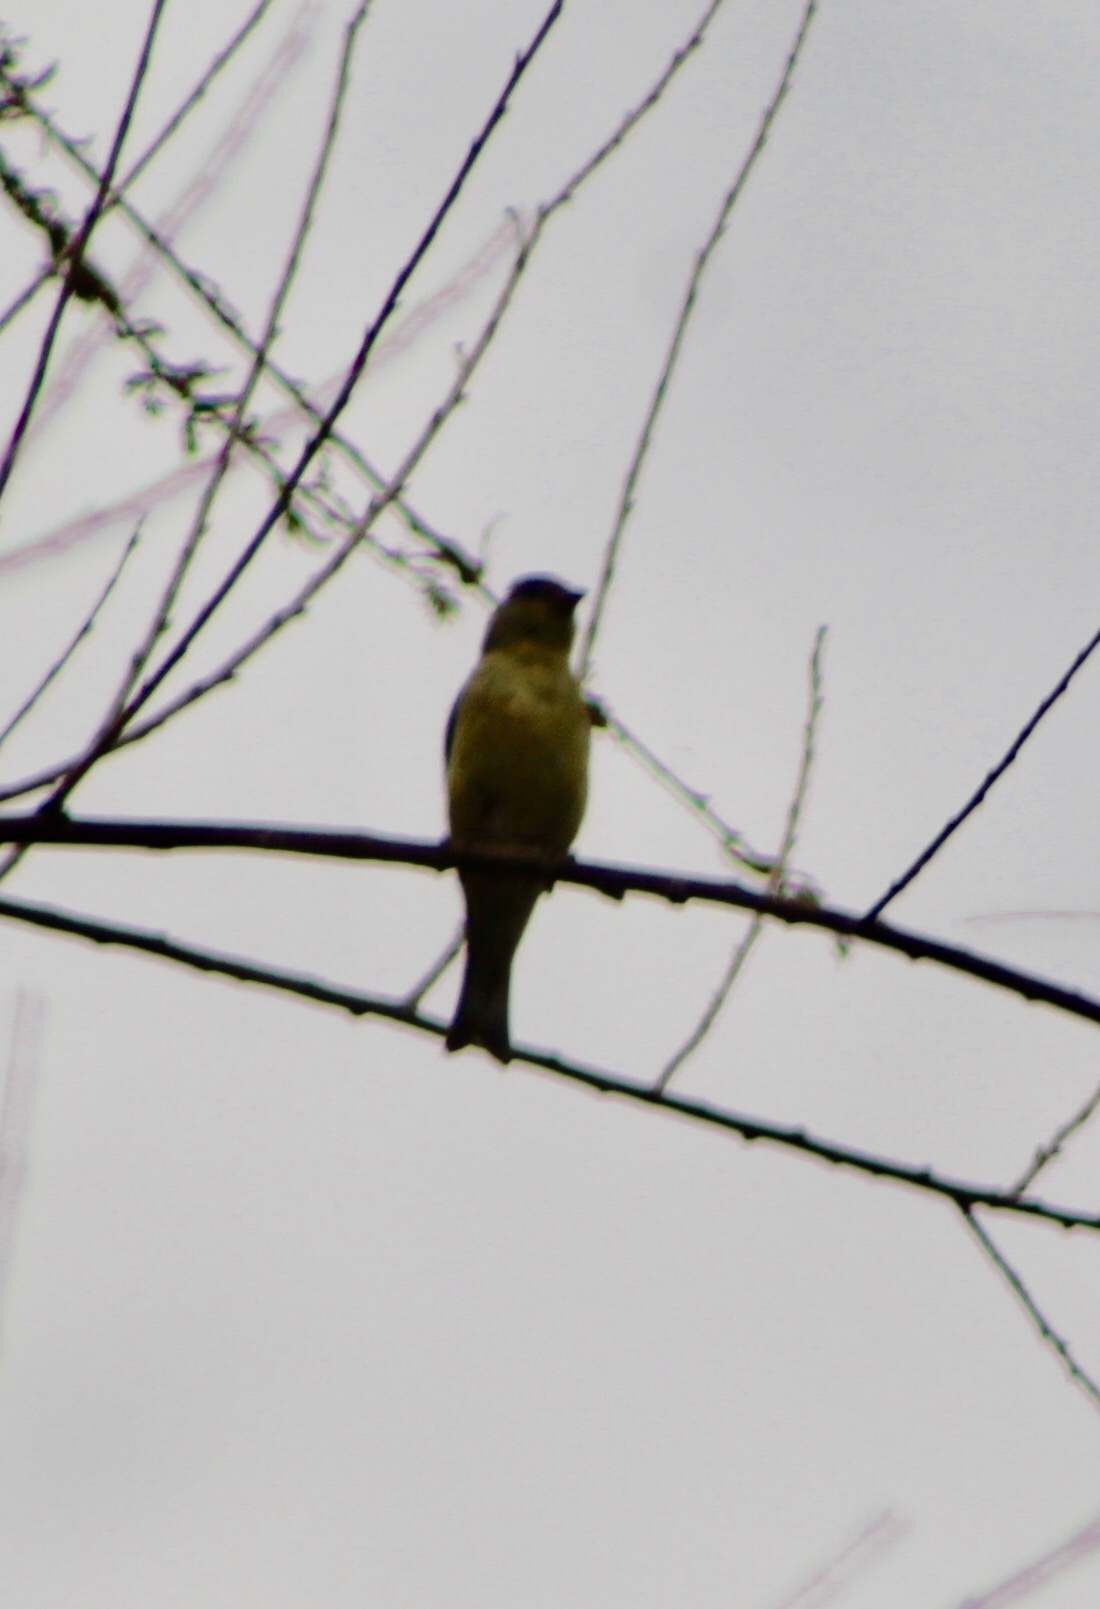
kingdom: Animalia
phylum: Chordata
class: Aves
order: Passeriformes
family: Fringillidae
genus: Spinus
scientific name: Spinus psaltria
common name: Lesser goldfinch
